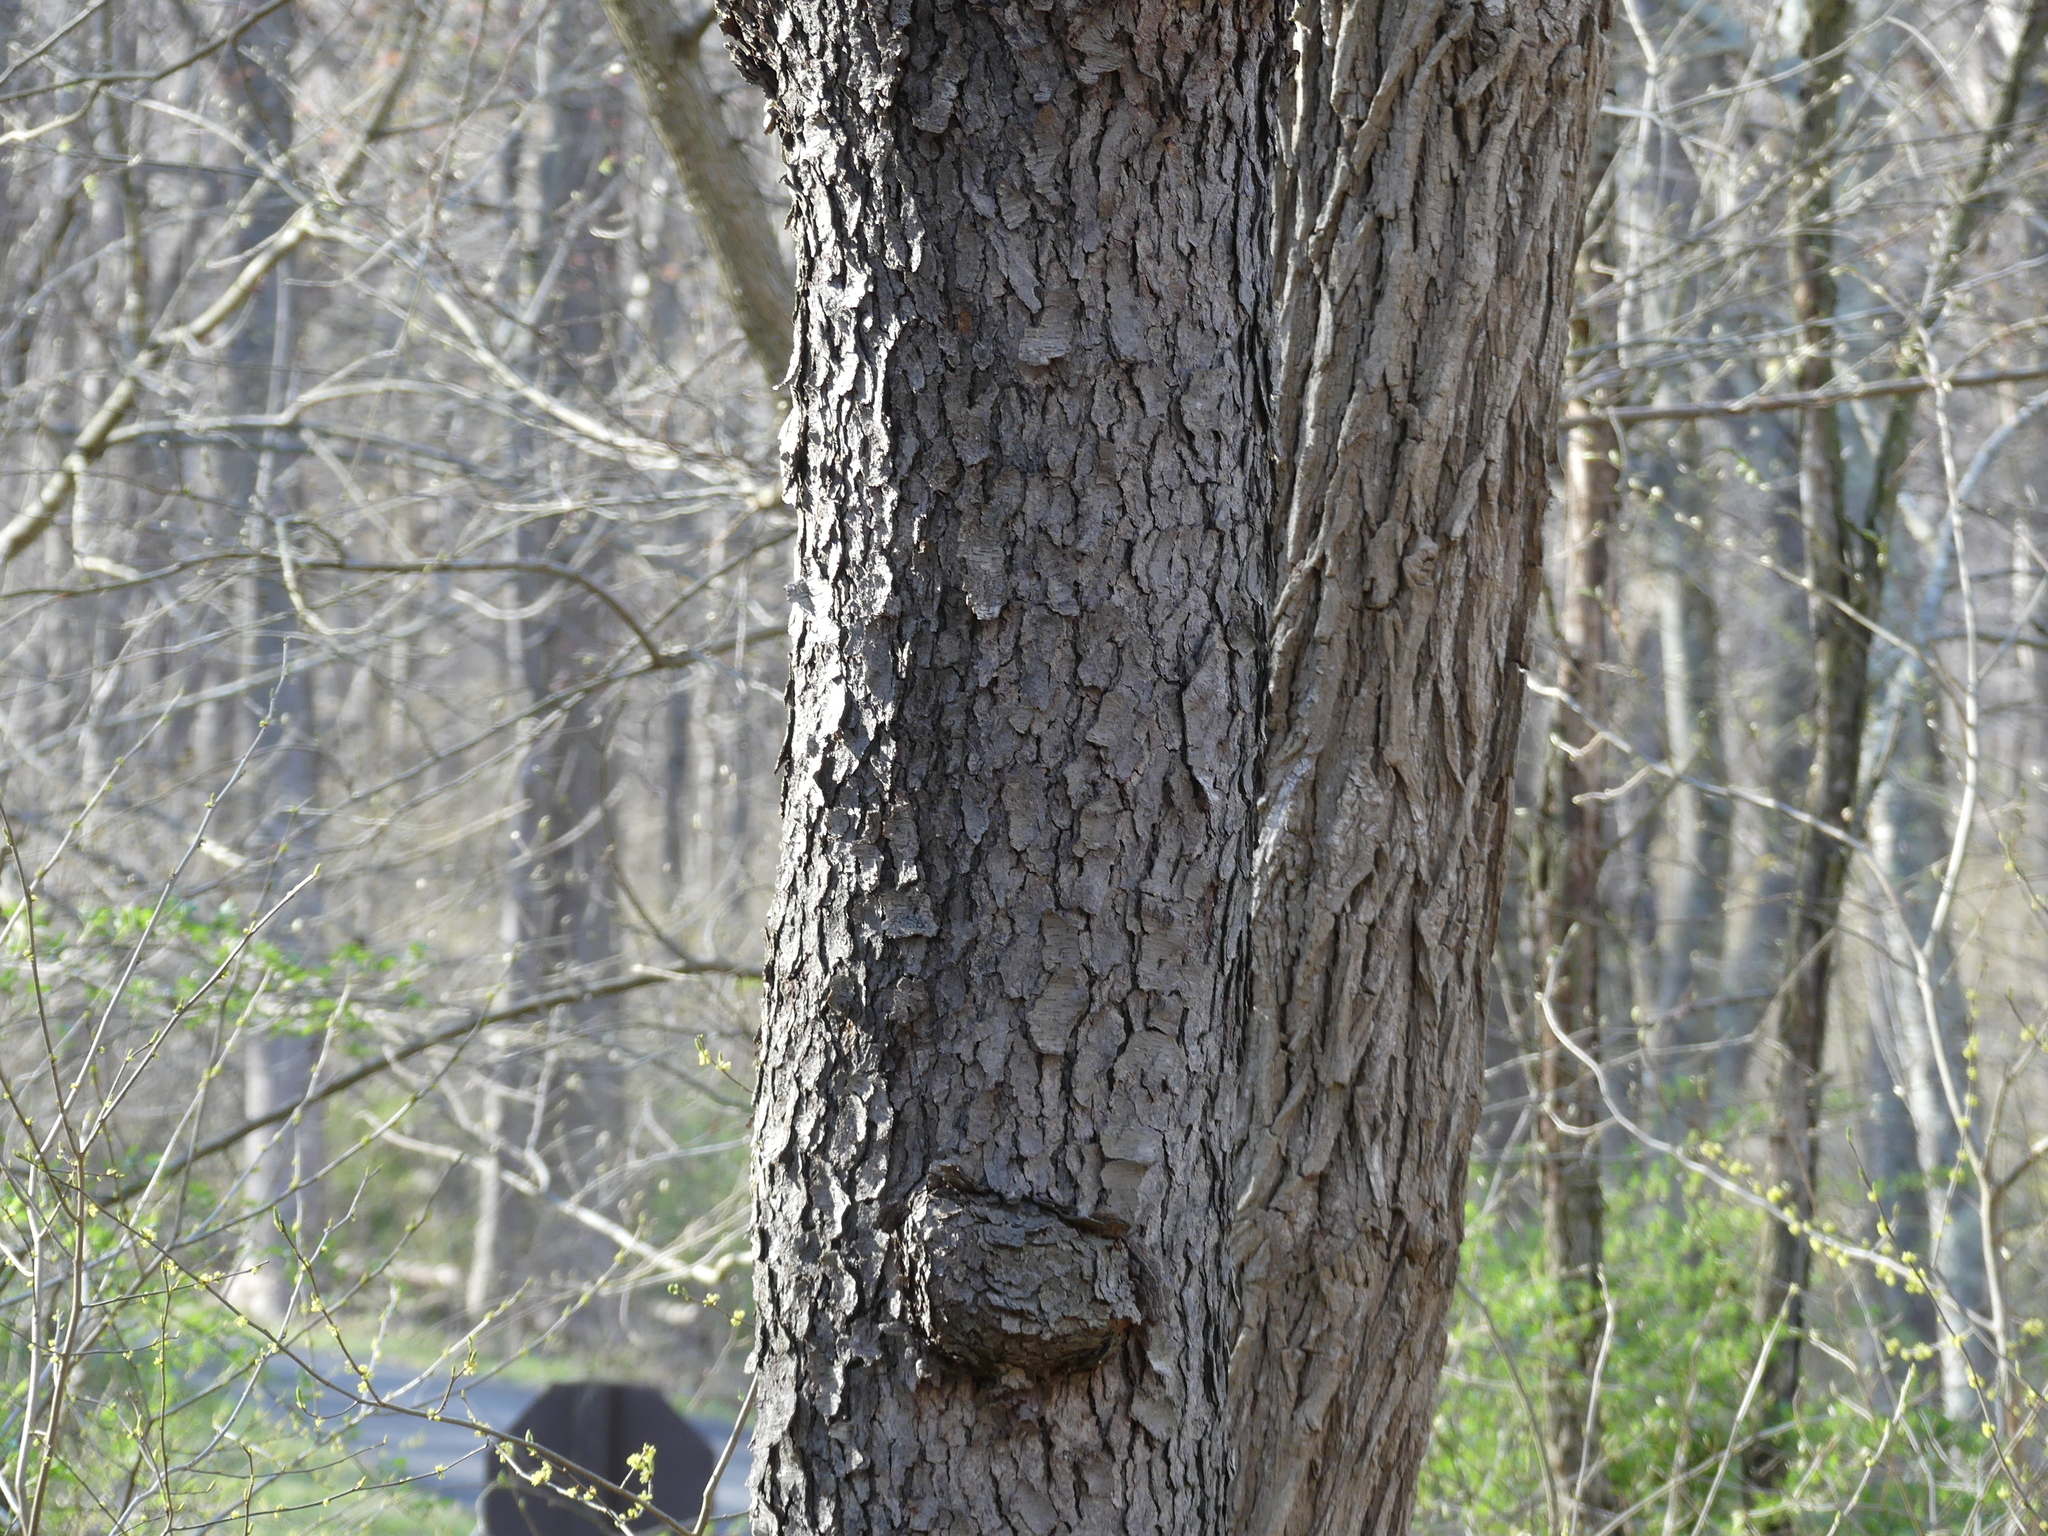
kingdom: Plantae
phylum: Tracheophyta
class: Magnoliopsida
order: Rosales
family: Rosaceae
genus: Prunus
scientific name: Prunus serotina
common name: Black cherry
